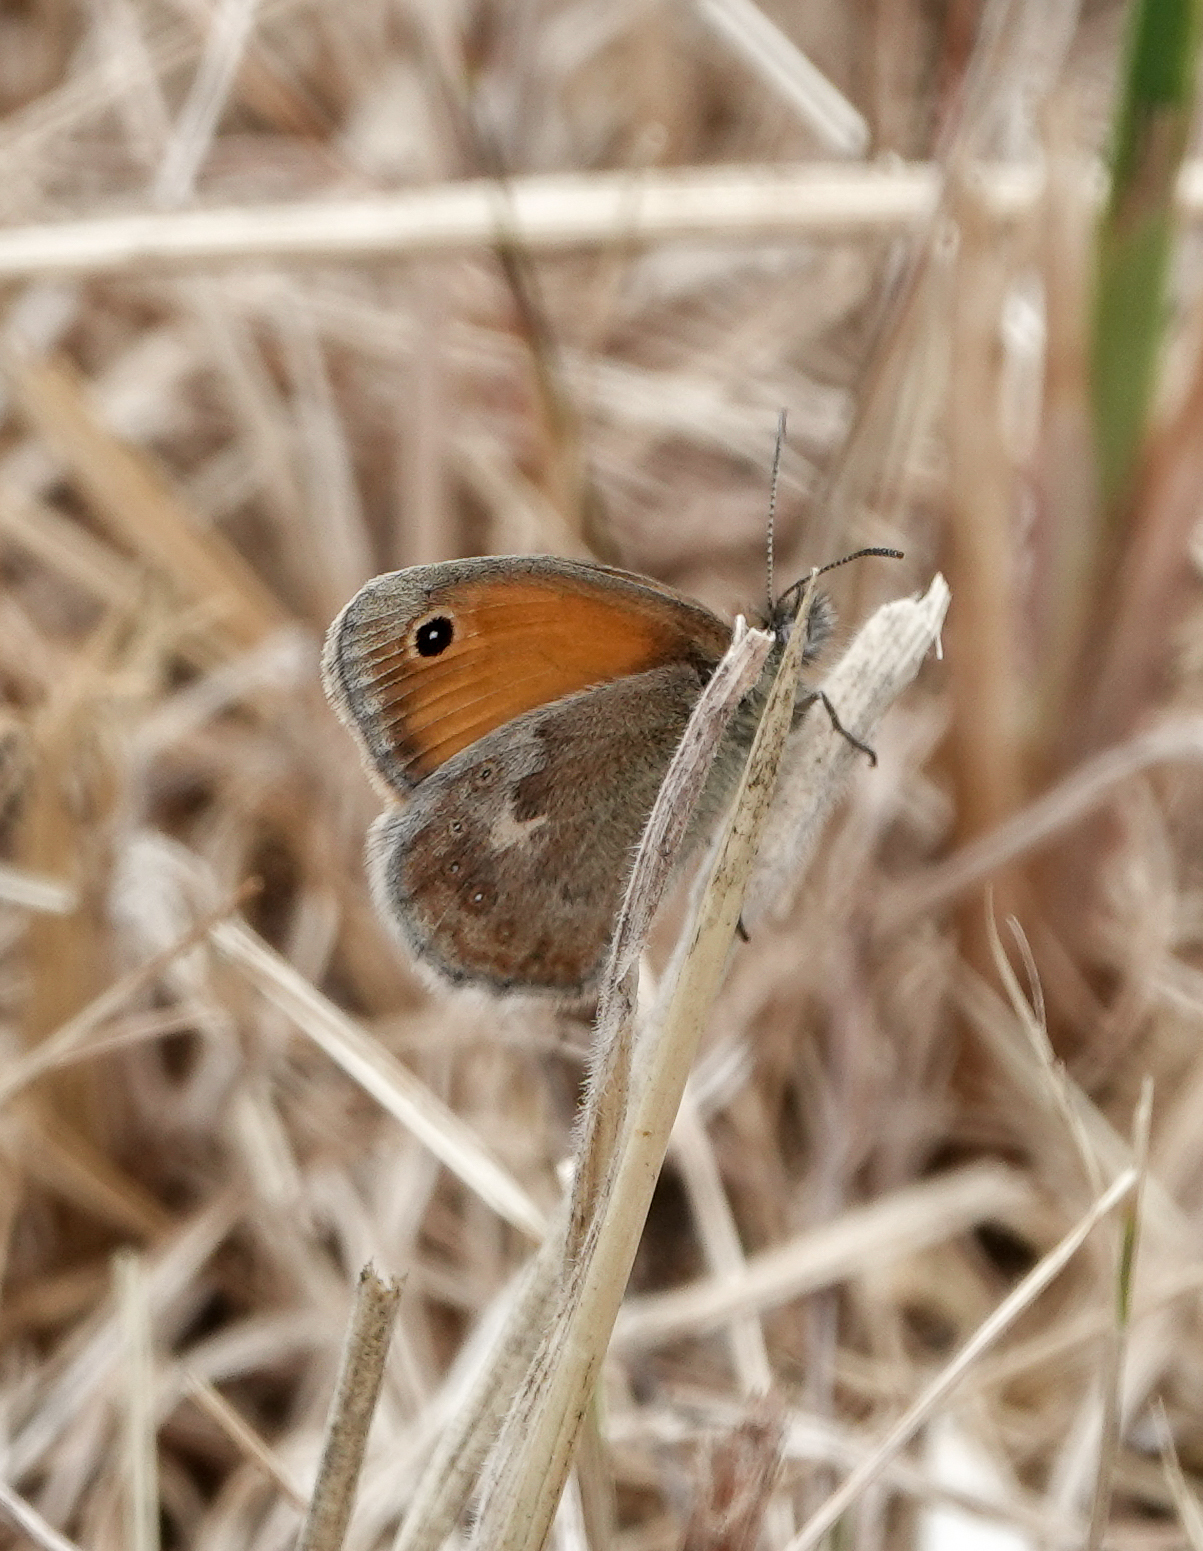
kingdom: Animalia
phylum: Arthropoda
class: Insecta
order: Lepidoptera
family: Nymphalidae
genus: Coenonympha
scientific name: Coenonympha pamphilus
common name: Small heath
